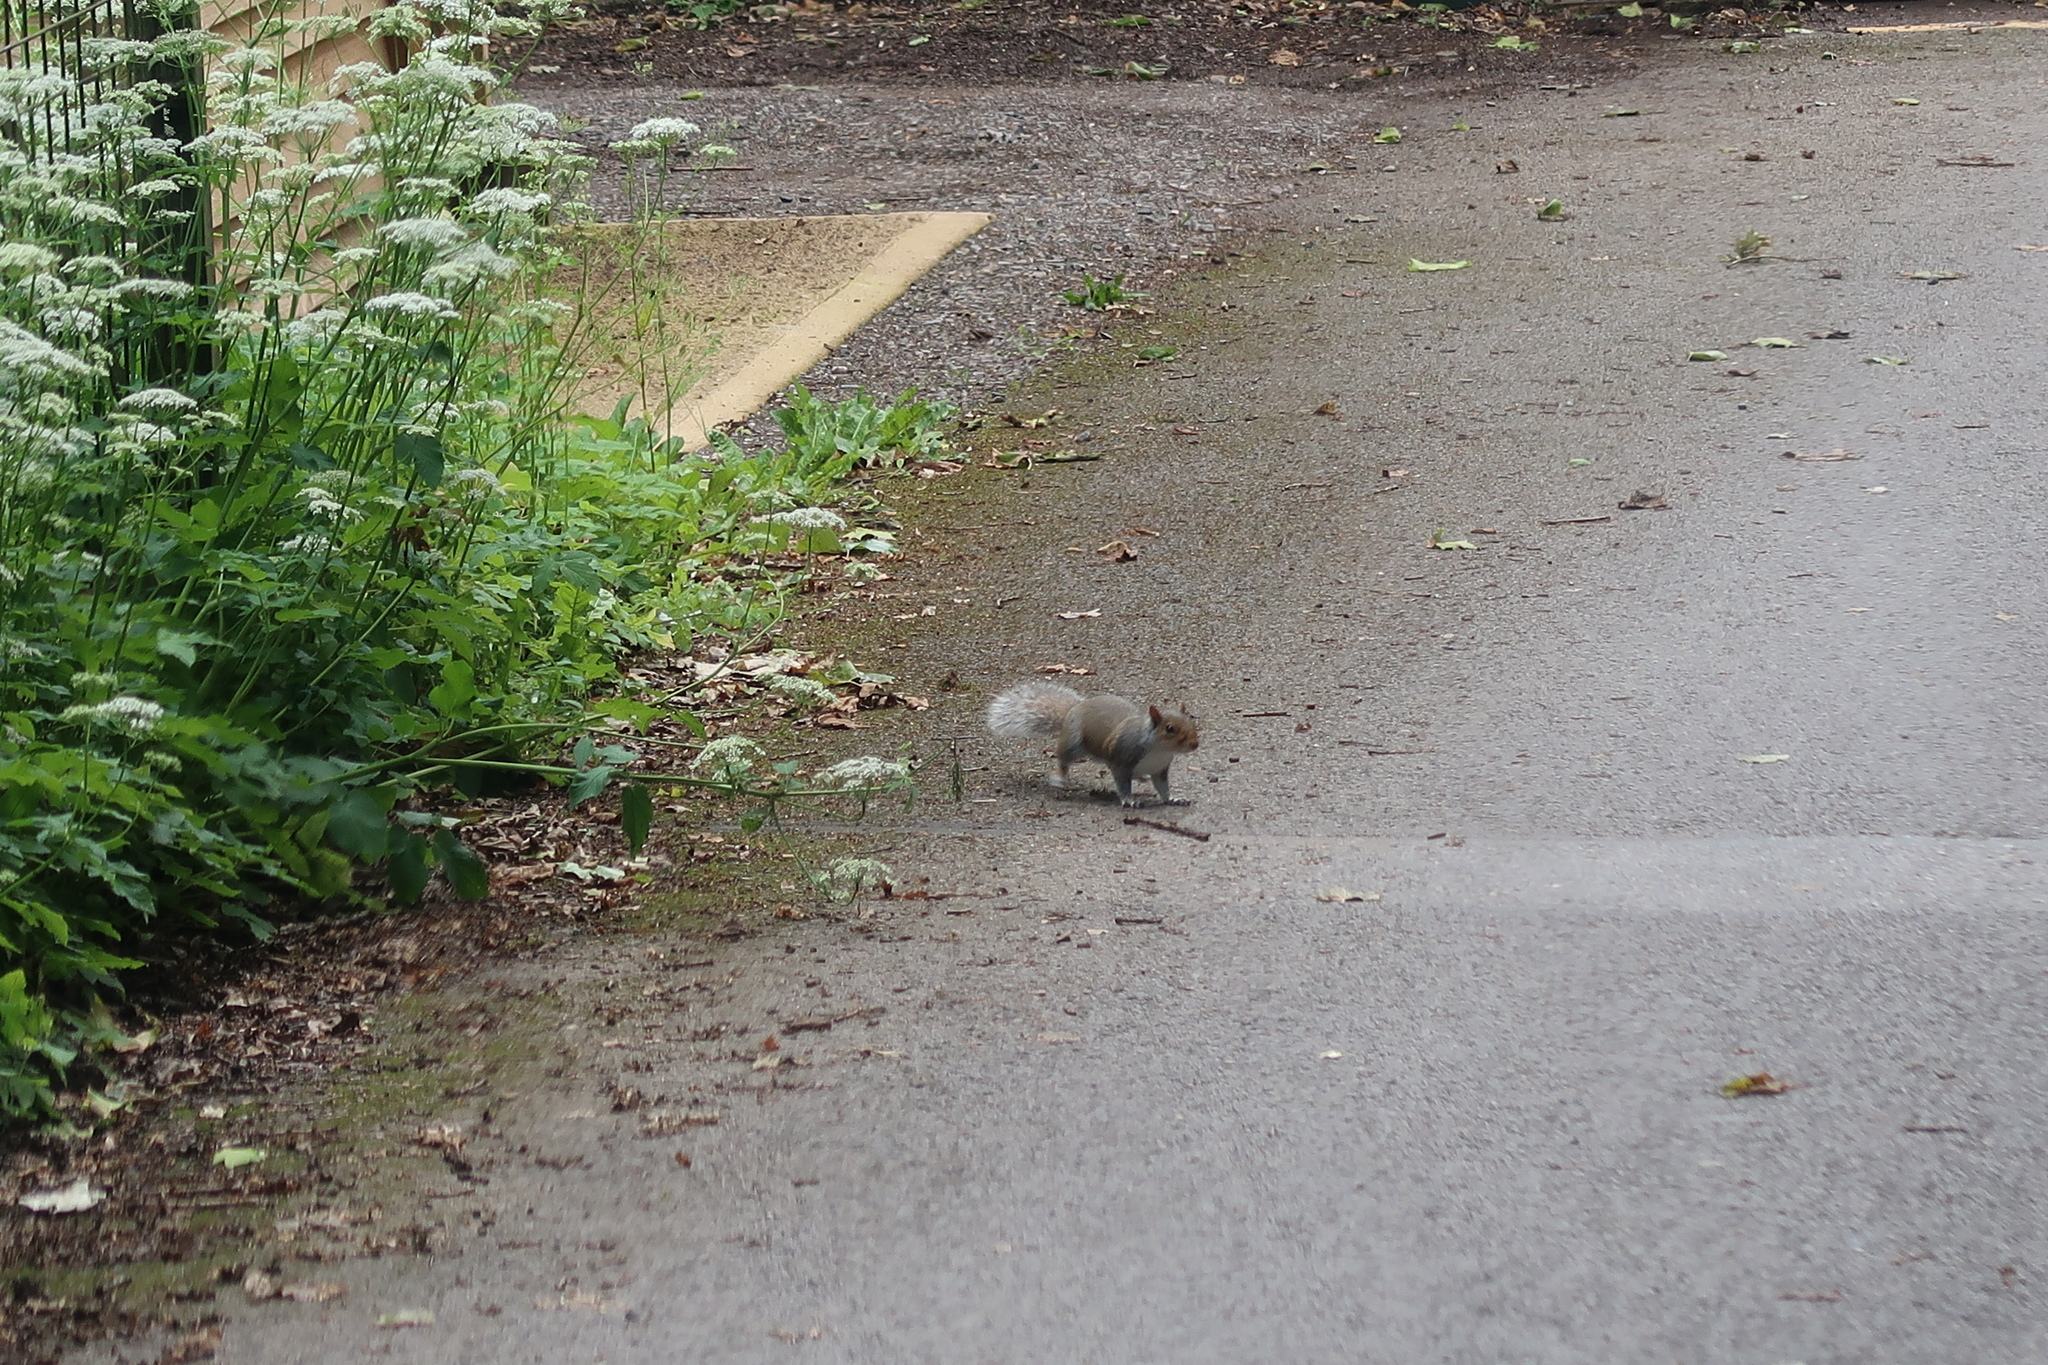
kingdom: Animalia
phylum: Chordata
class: Mammalia
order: Rodentia
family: Sciuridae
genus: Sciurus
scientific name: Sciurus carolinensis
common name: Eastern gray squirrel
